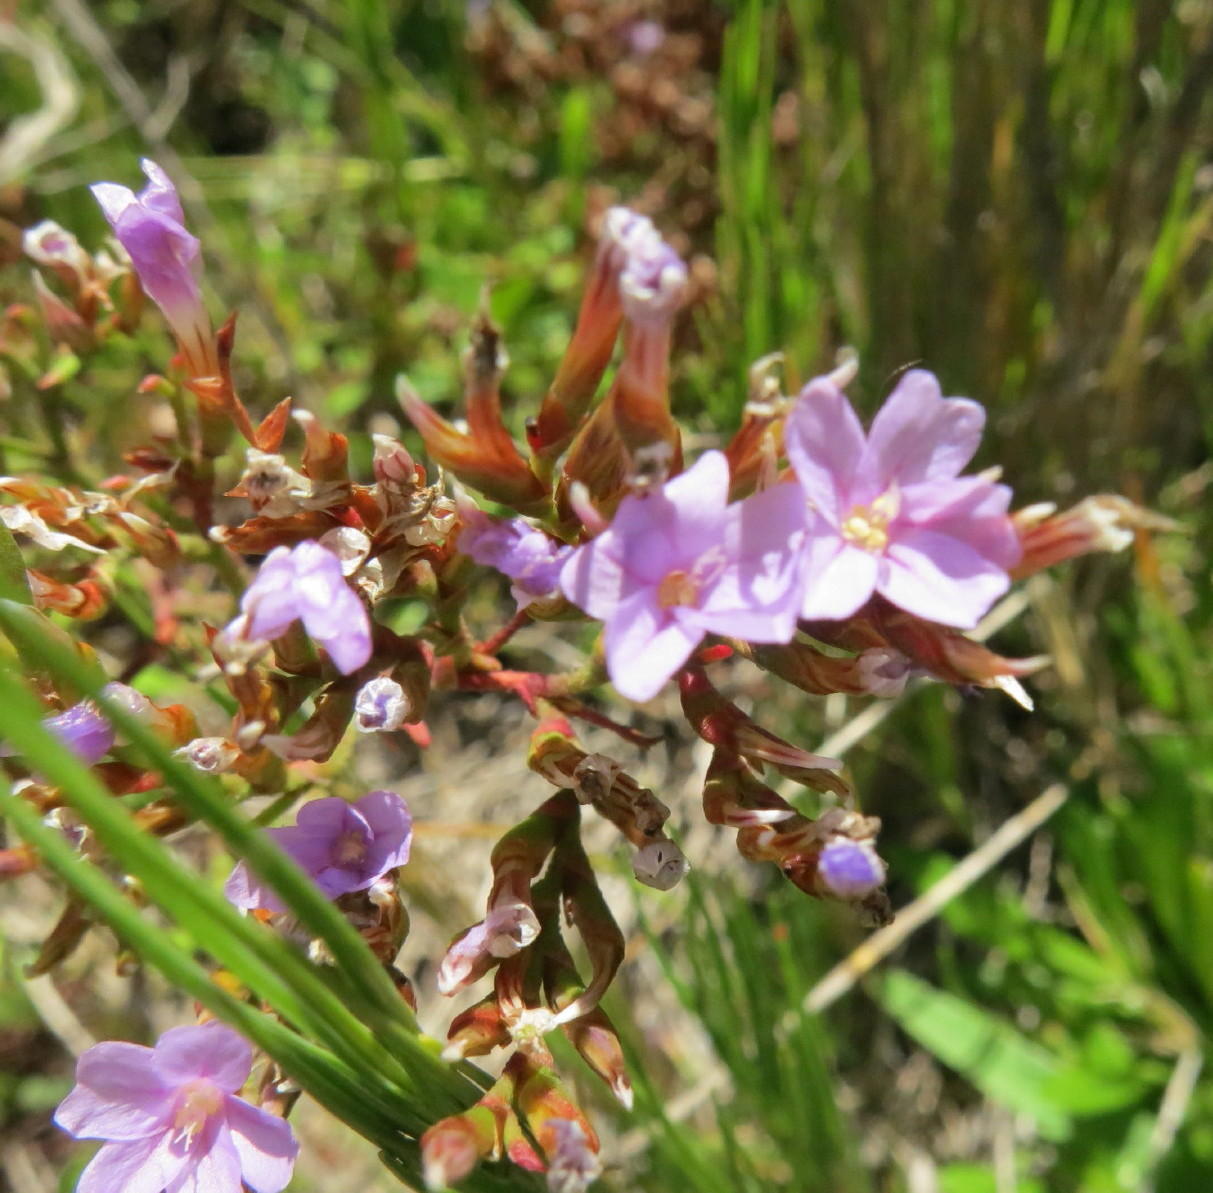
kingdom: Plantae
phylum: Tracheophyta
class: Magnoliopsida
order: Caryophyllales
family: Plumbaginaceae
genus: Limonium
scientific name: Limonium scabrum
